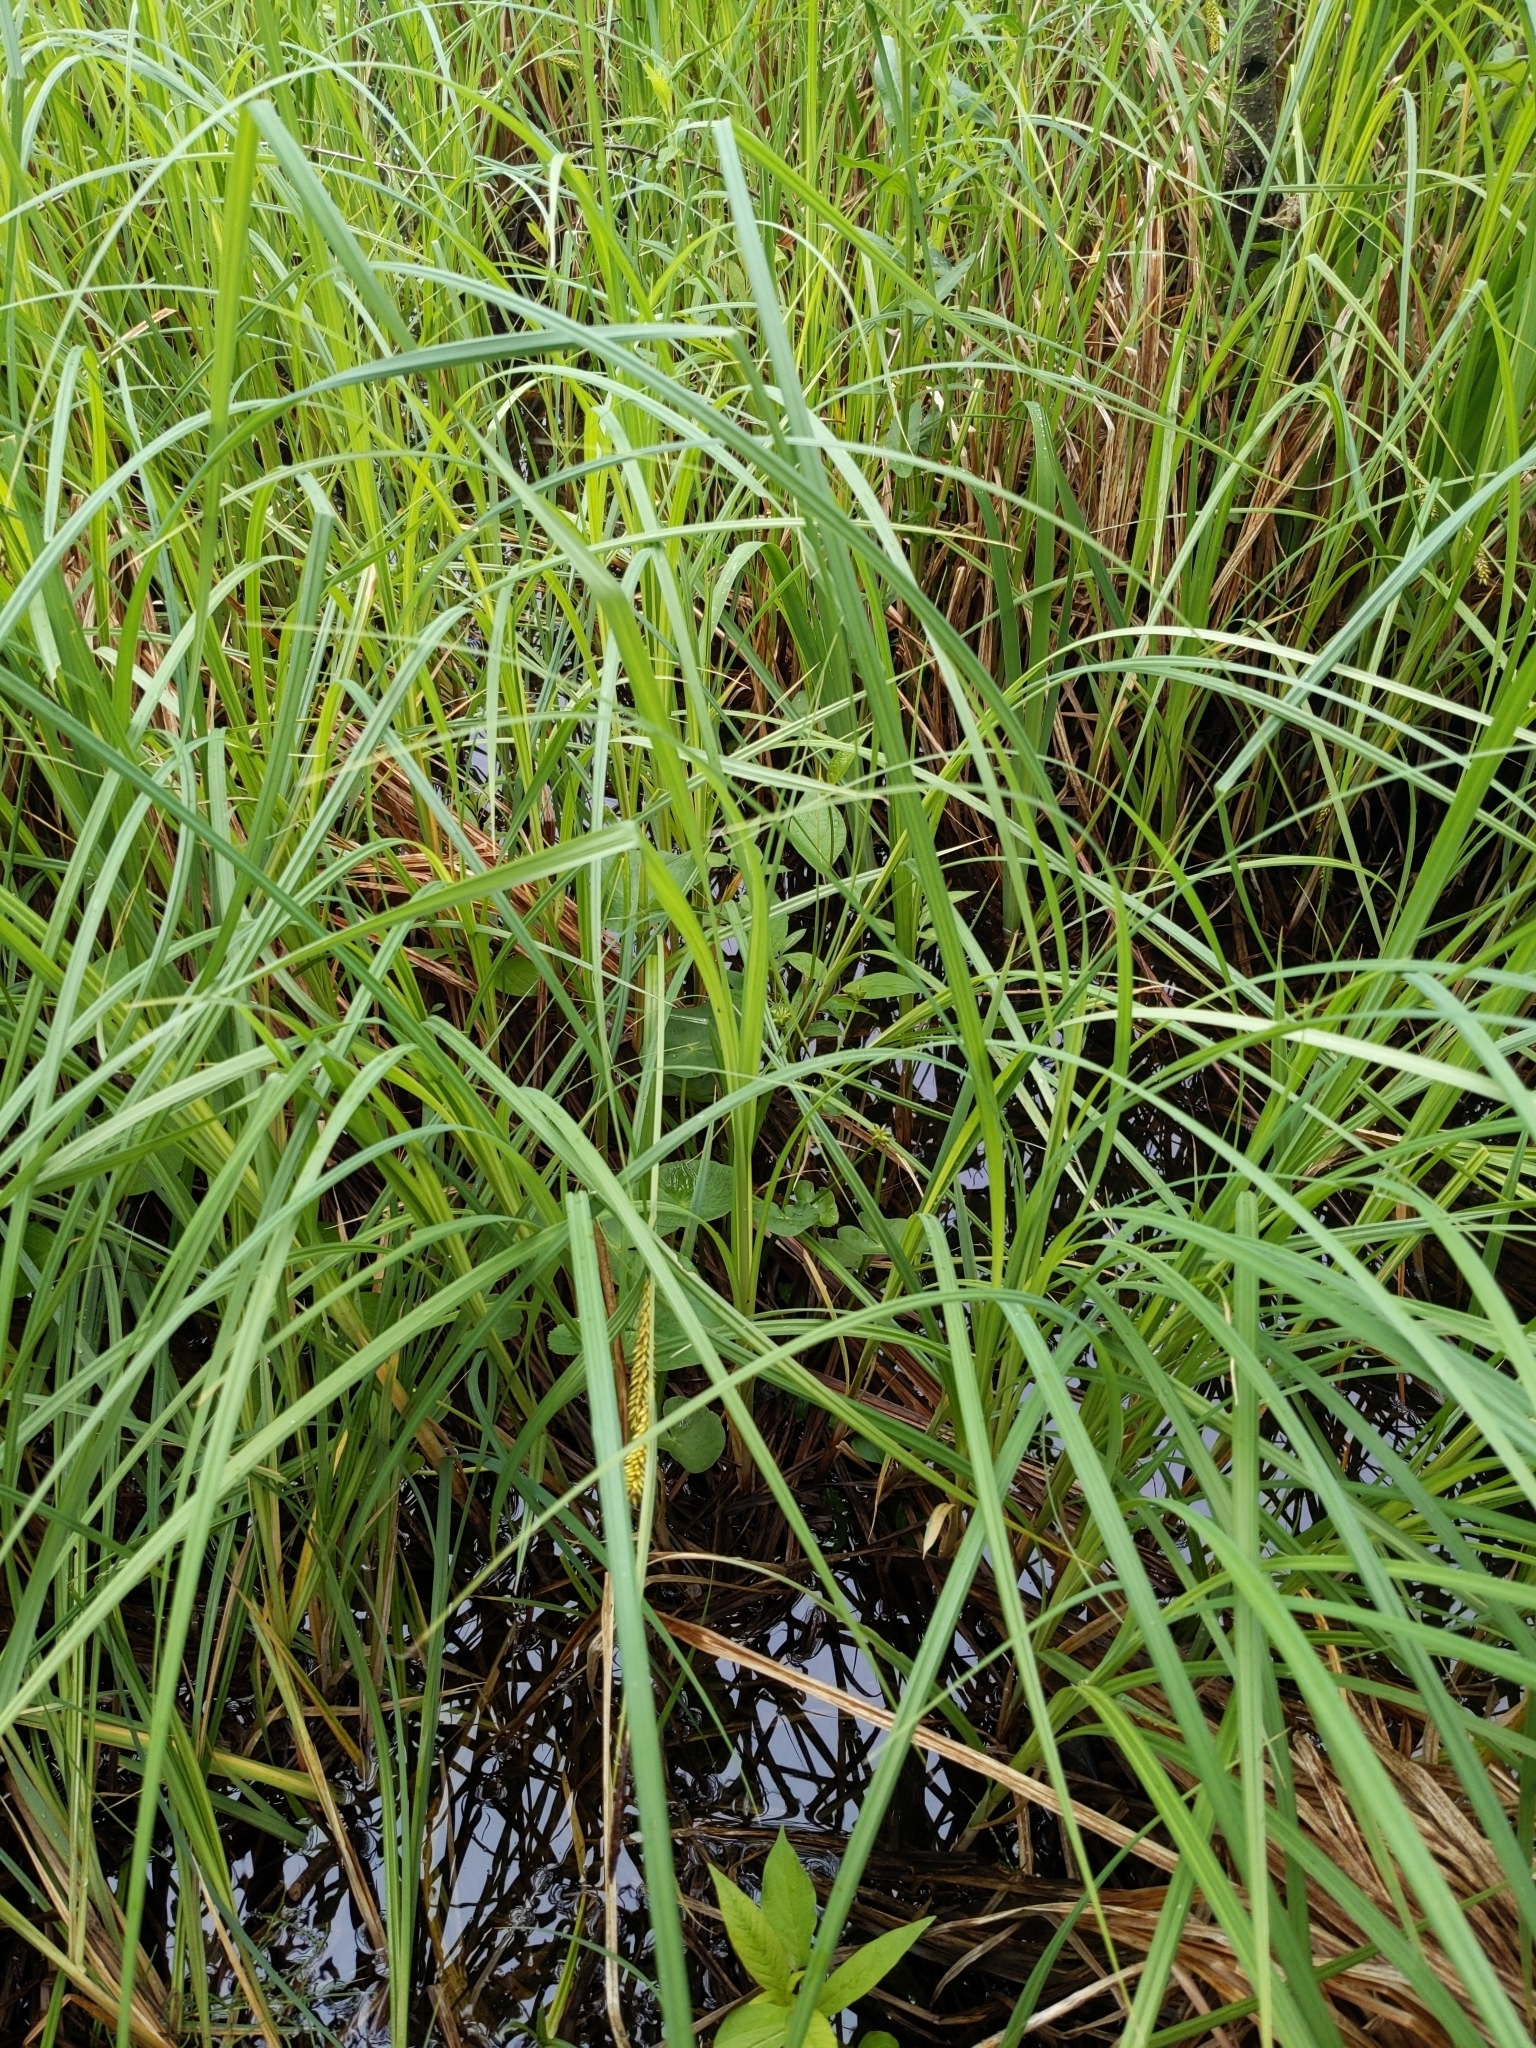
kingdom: Plantae
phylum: Tracheophyta
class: Liliopsida
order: Poales
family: Cyperaceae
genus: Carex
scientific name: Carex lacustris
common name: Common lake sedge
